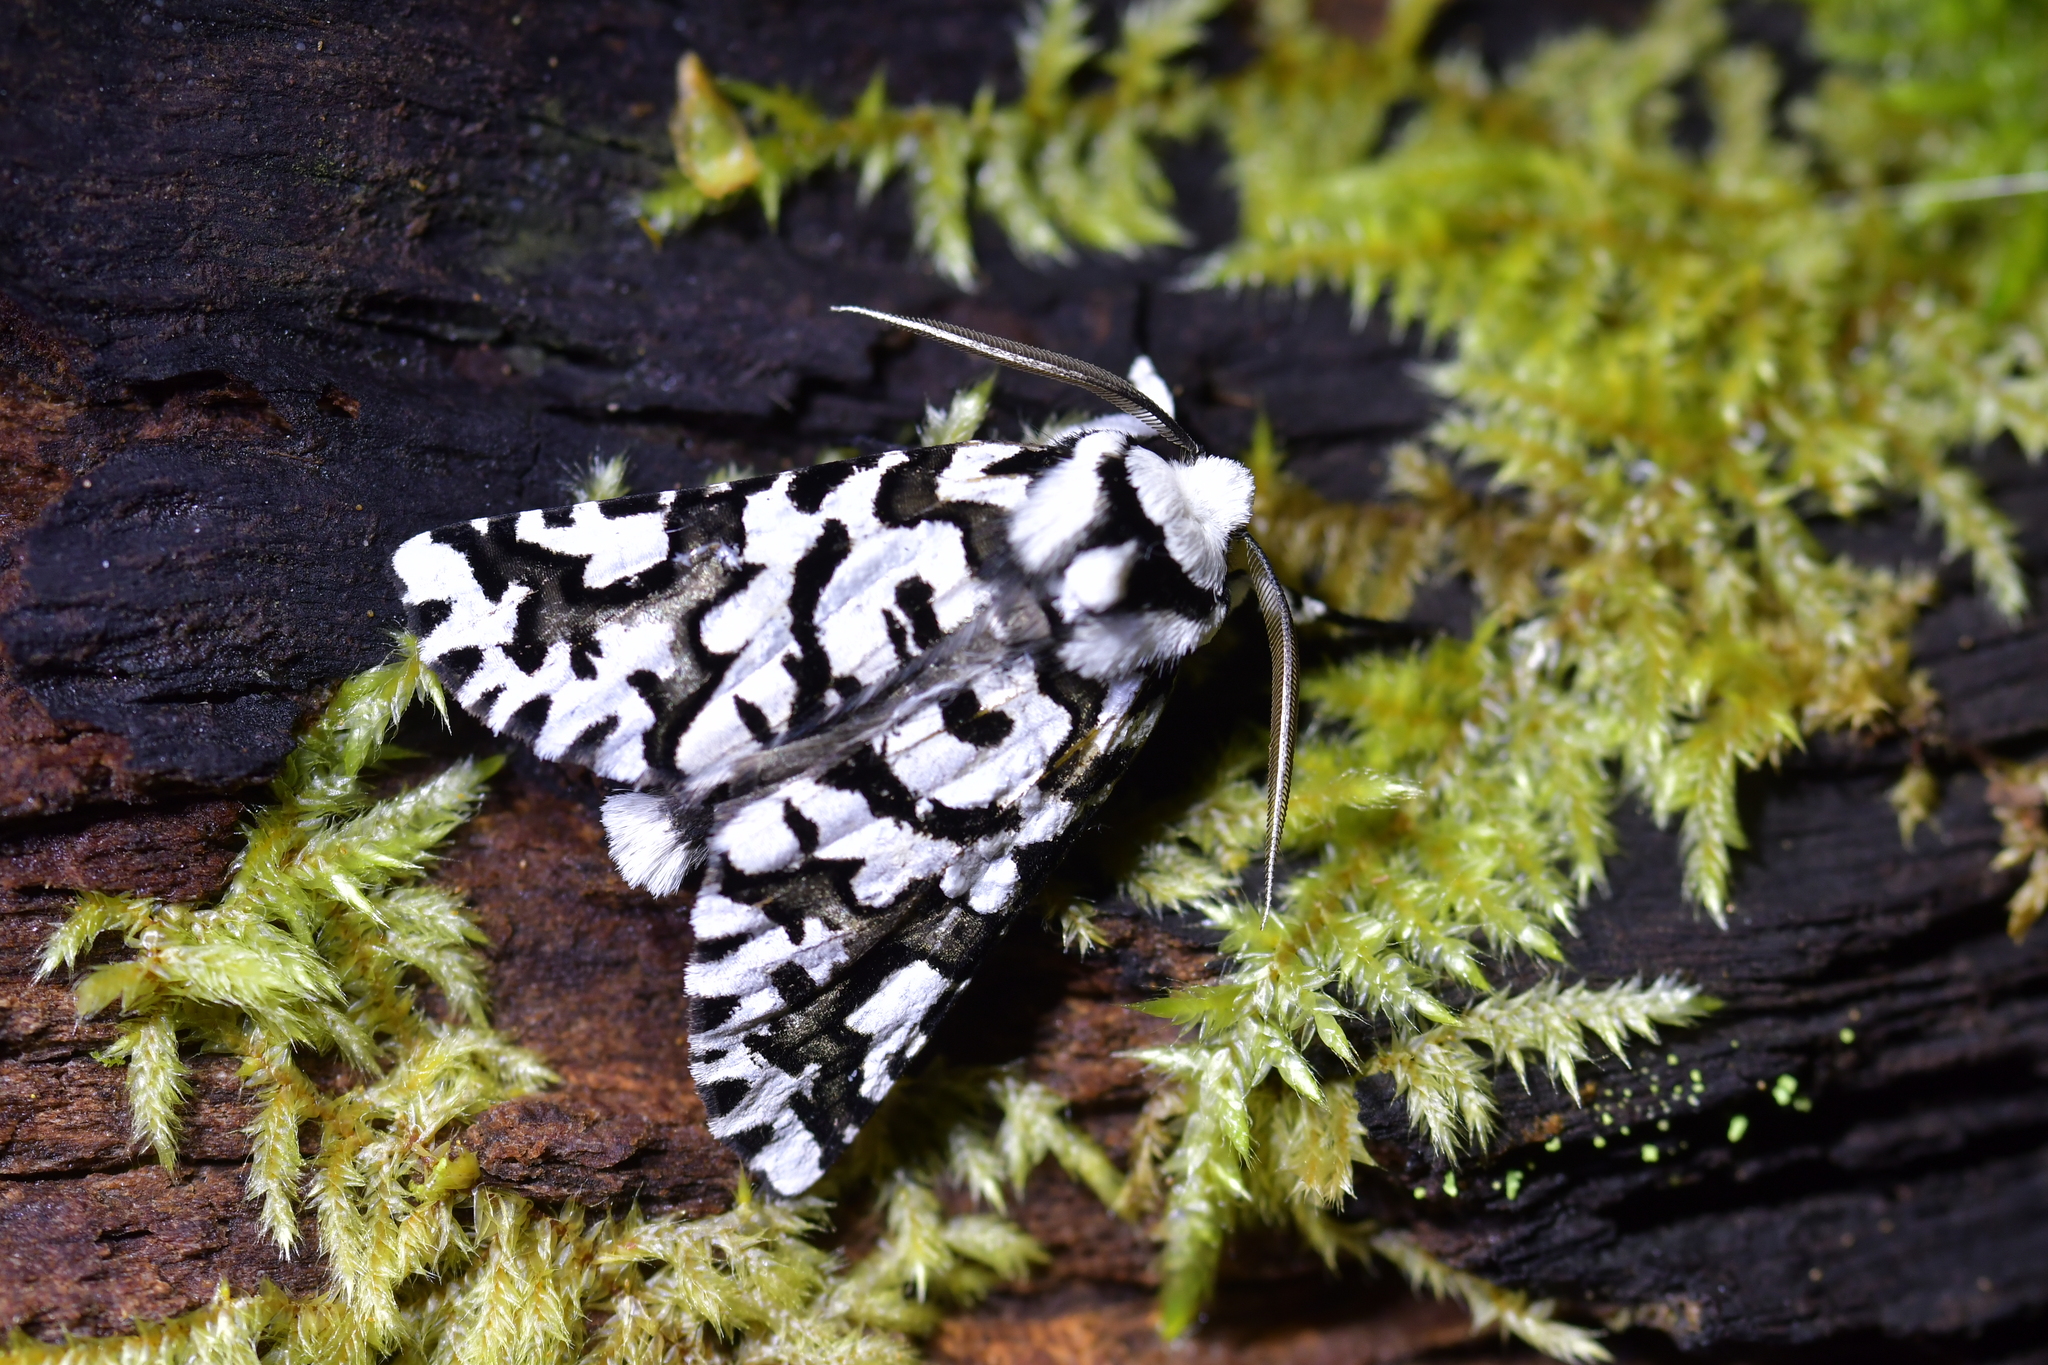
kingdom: Animalia
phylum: Arthropoda
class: Insecta
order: Lepidoptera
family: Geometridae
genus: Declana
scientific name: Declana
